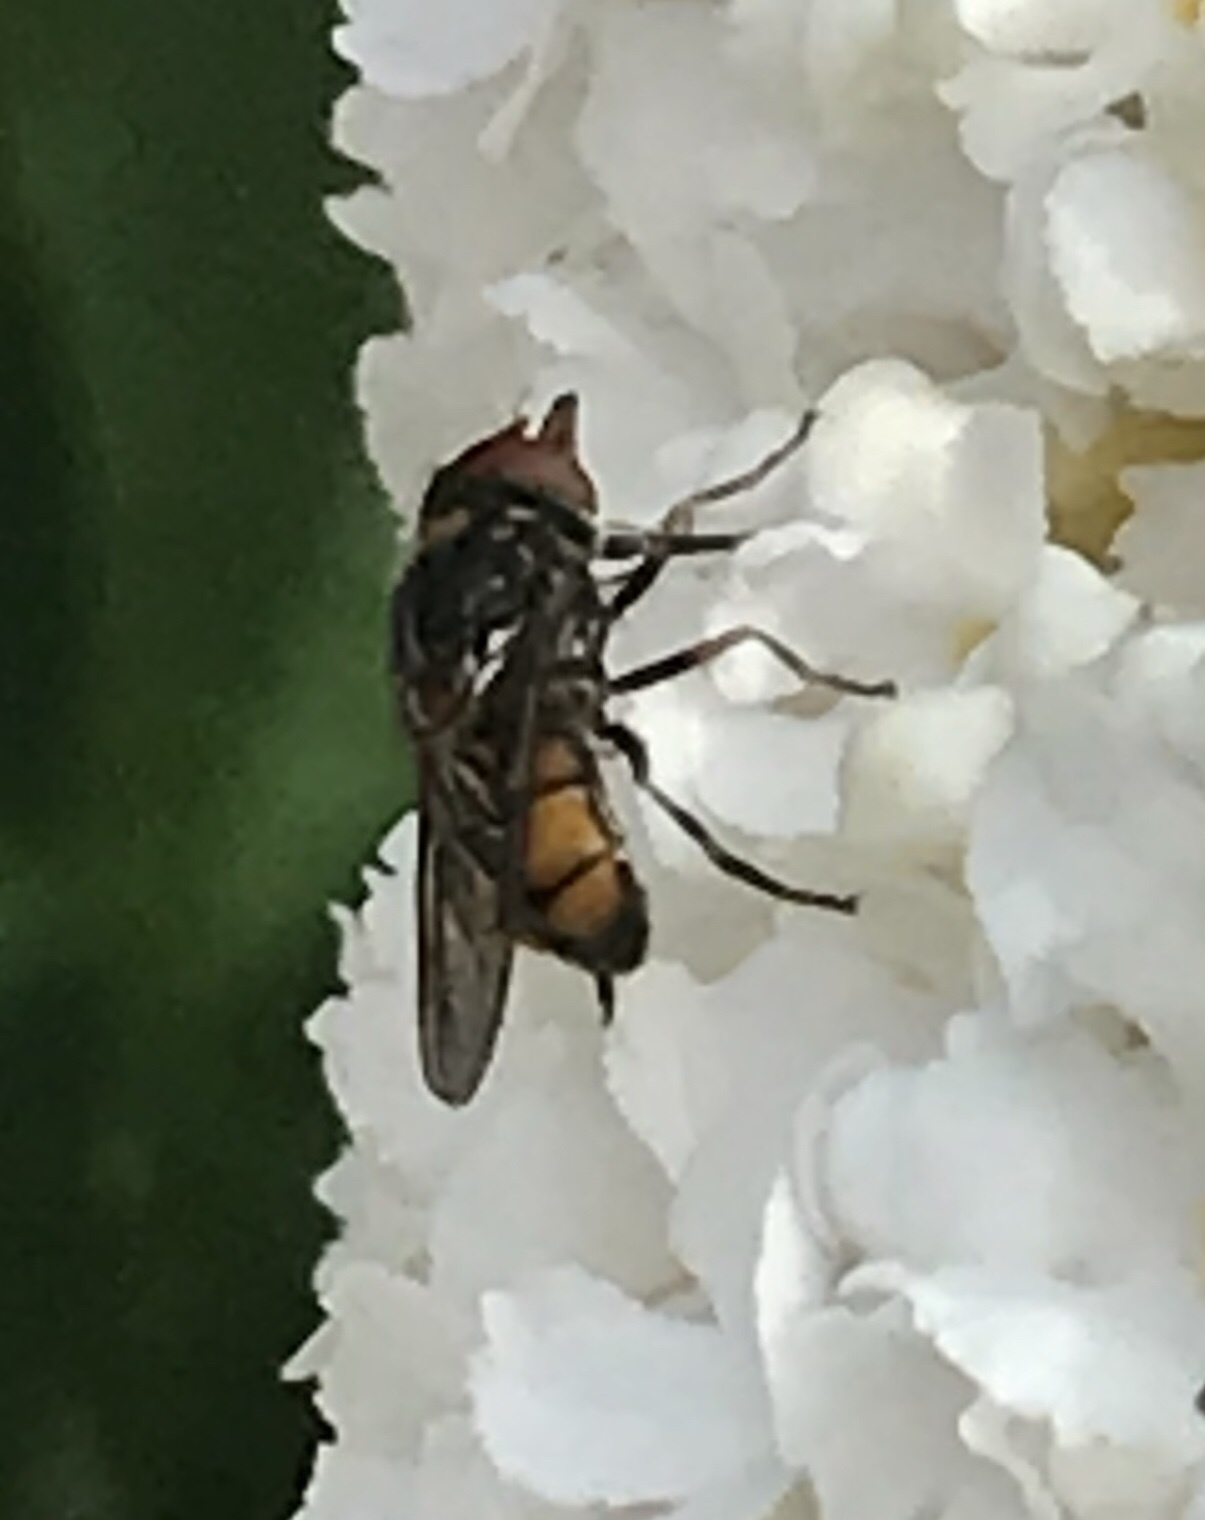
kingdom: Animalia
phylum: Arthropoda
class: Insecta
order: Diptera
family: Syrphidae
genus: Rhingia
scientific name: Rhingia campestris
